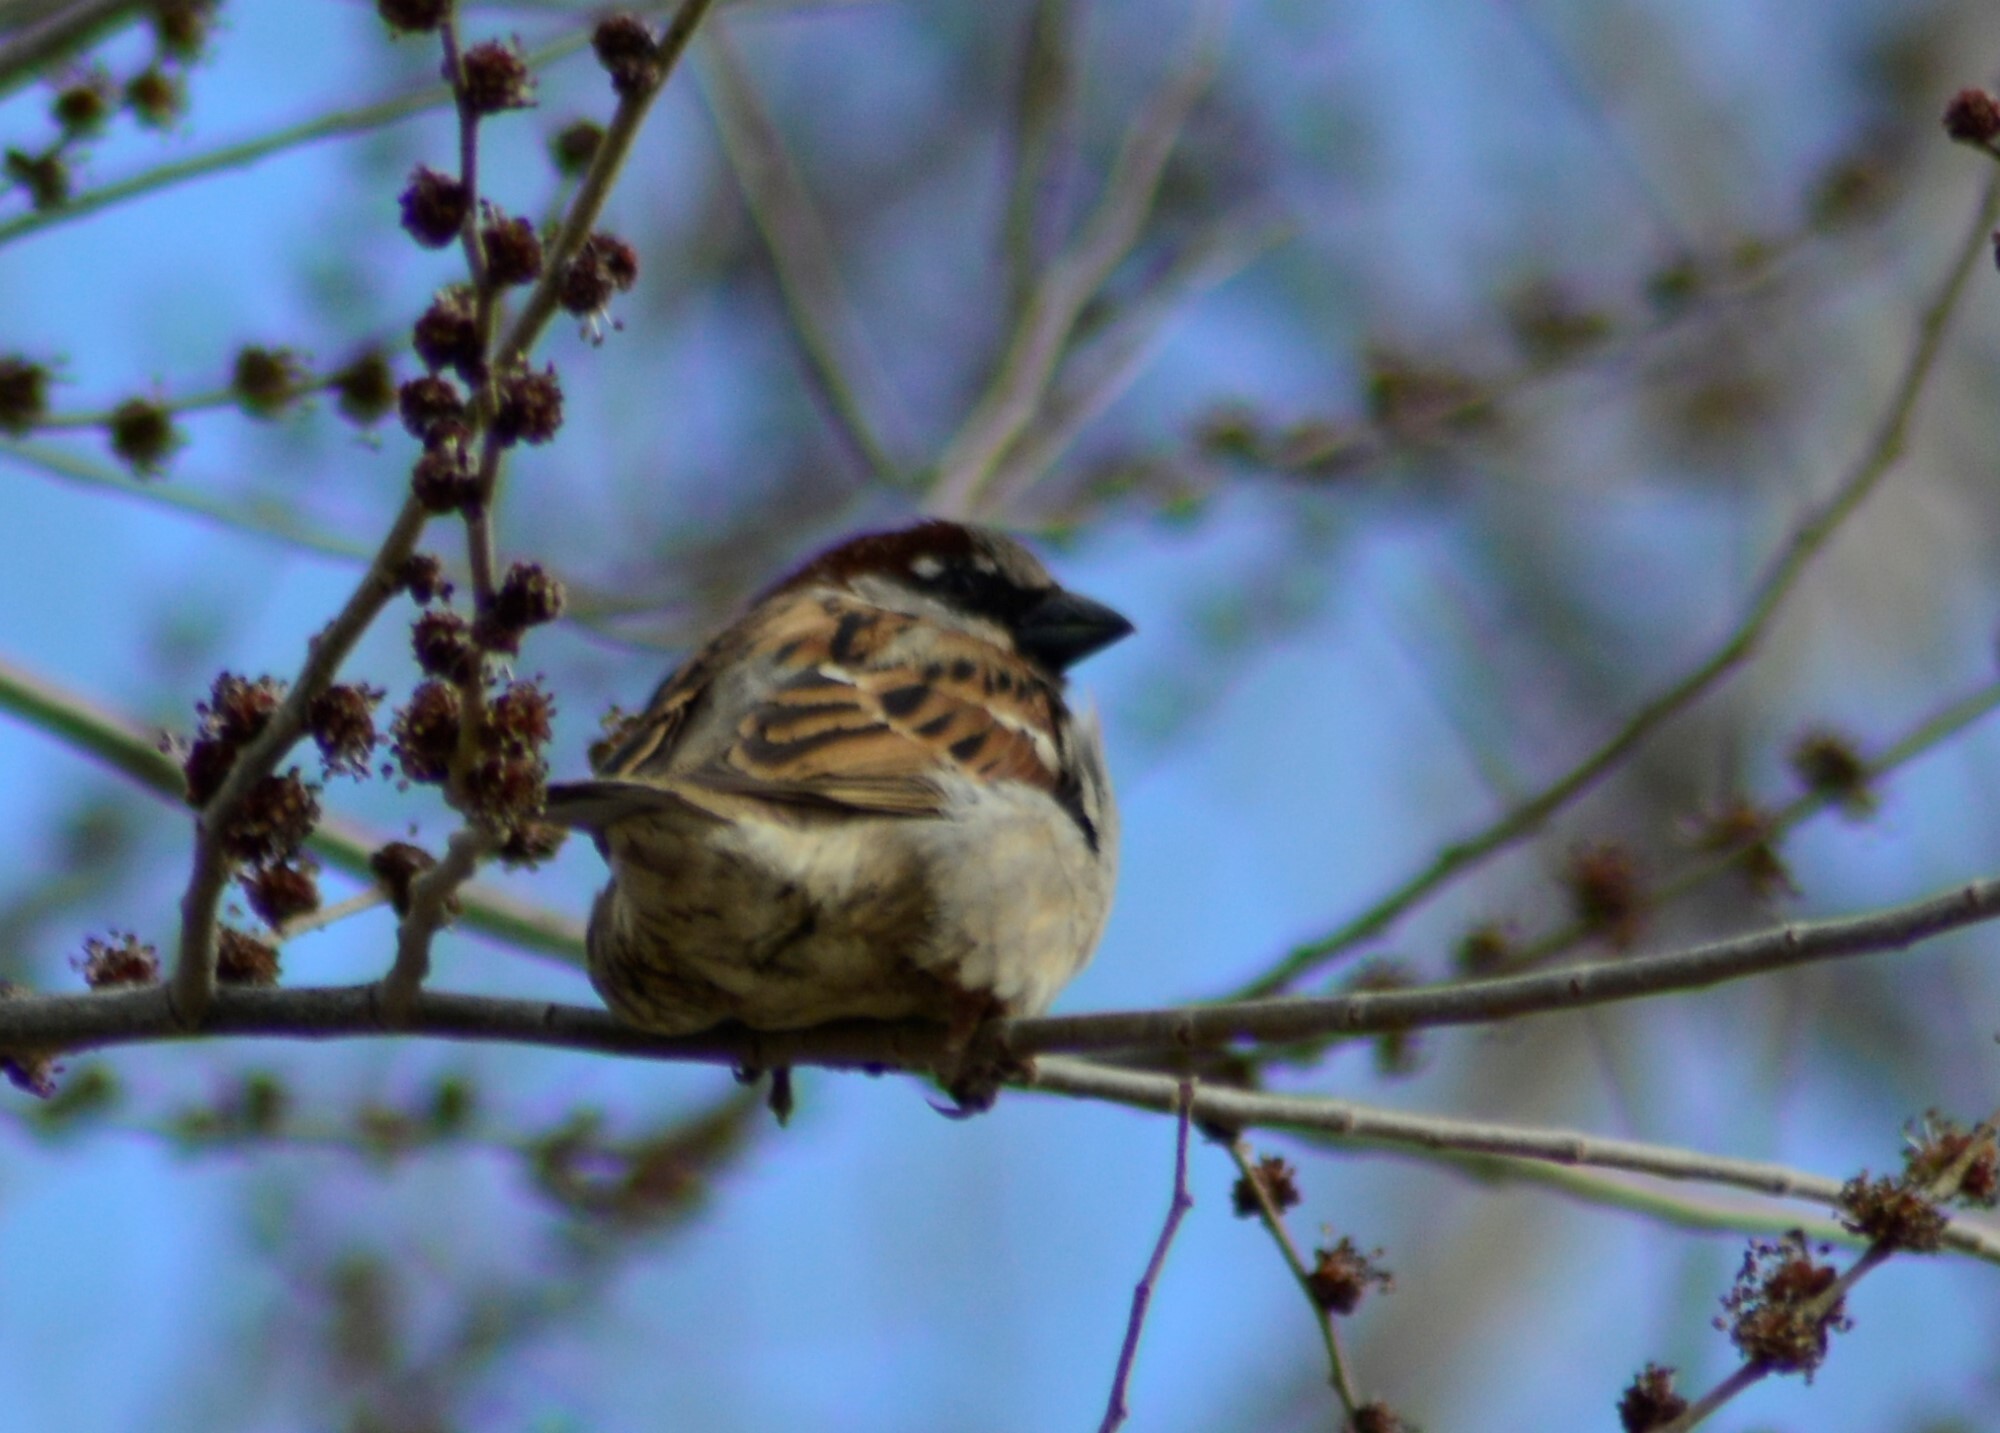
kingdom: Animalia
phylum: Chordata
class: Aves
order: Passeriformes
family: Passeridae
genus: Passer
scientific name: Passer domesticus
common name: House sparrow
